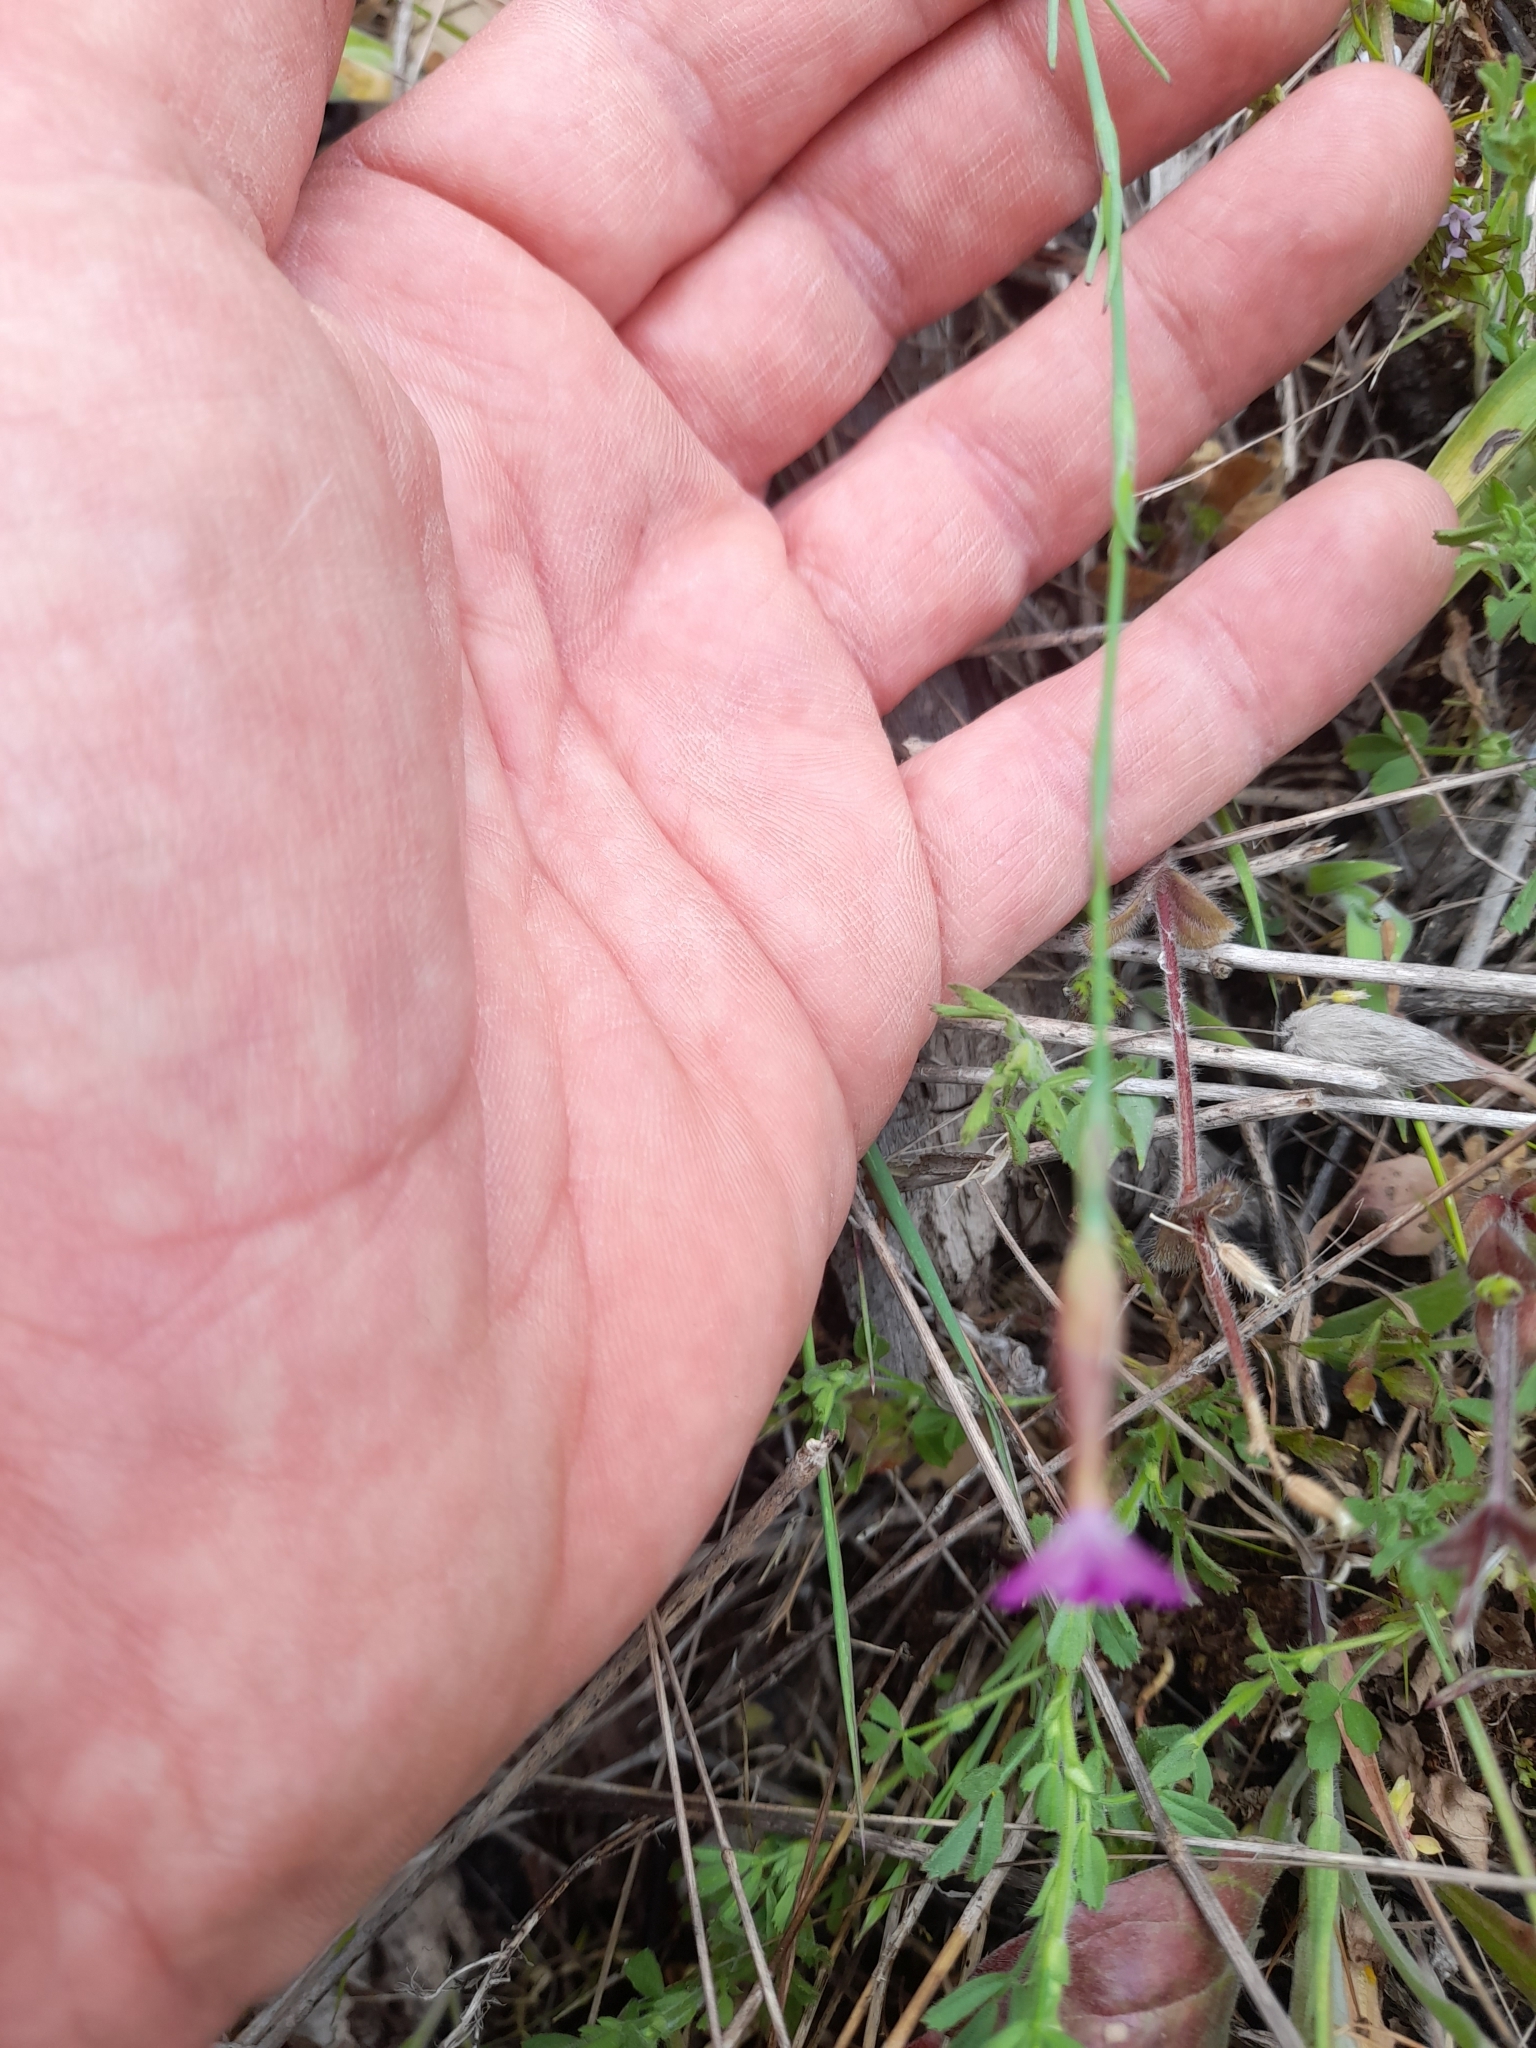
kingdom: Plantae
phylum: Tracheophyta
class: Magnoliopsida
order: Caryophyllales
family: Caryophyllaceae
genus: Petrorhagia
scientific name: Petrorhagia dubia
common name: Hairypink
